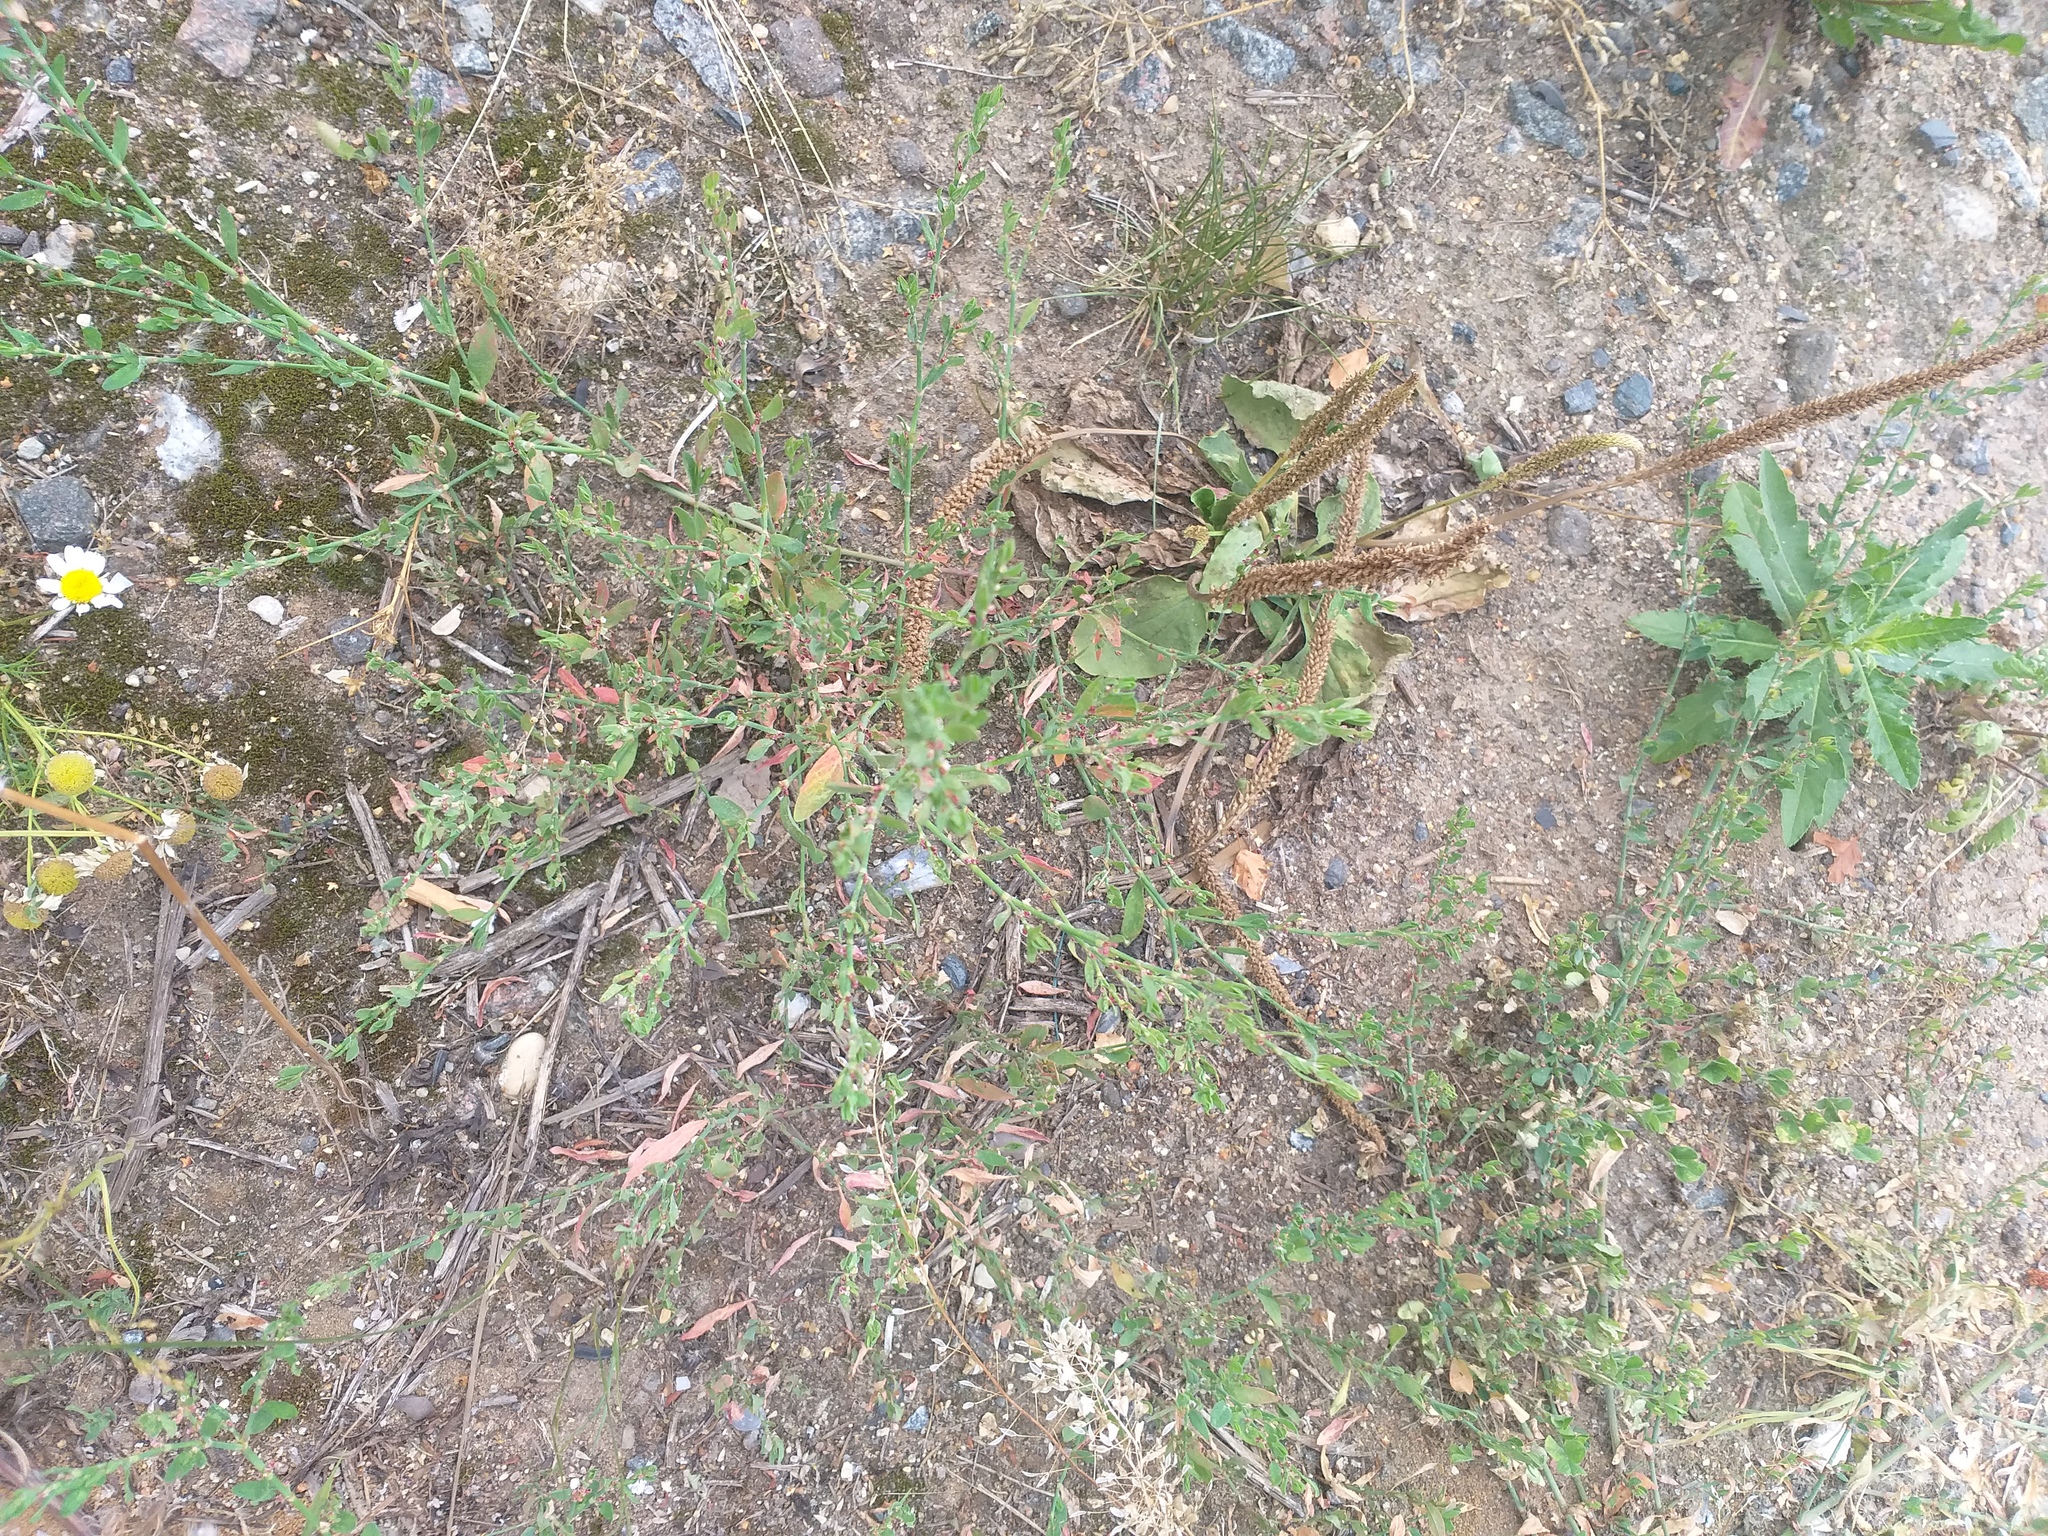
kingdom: Plantae
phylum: Tracheophyta
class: Magnoliopsida
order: Caryophyllales
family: Polygonaceae
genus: Polygonum
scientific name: Polygonum
